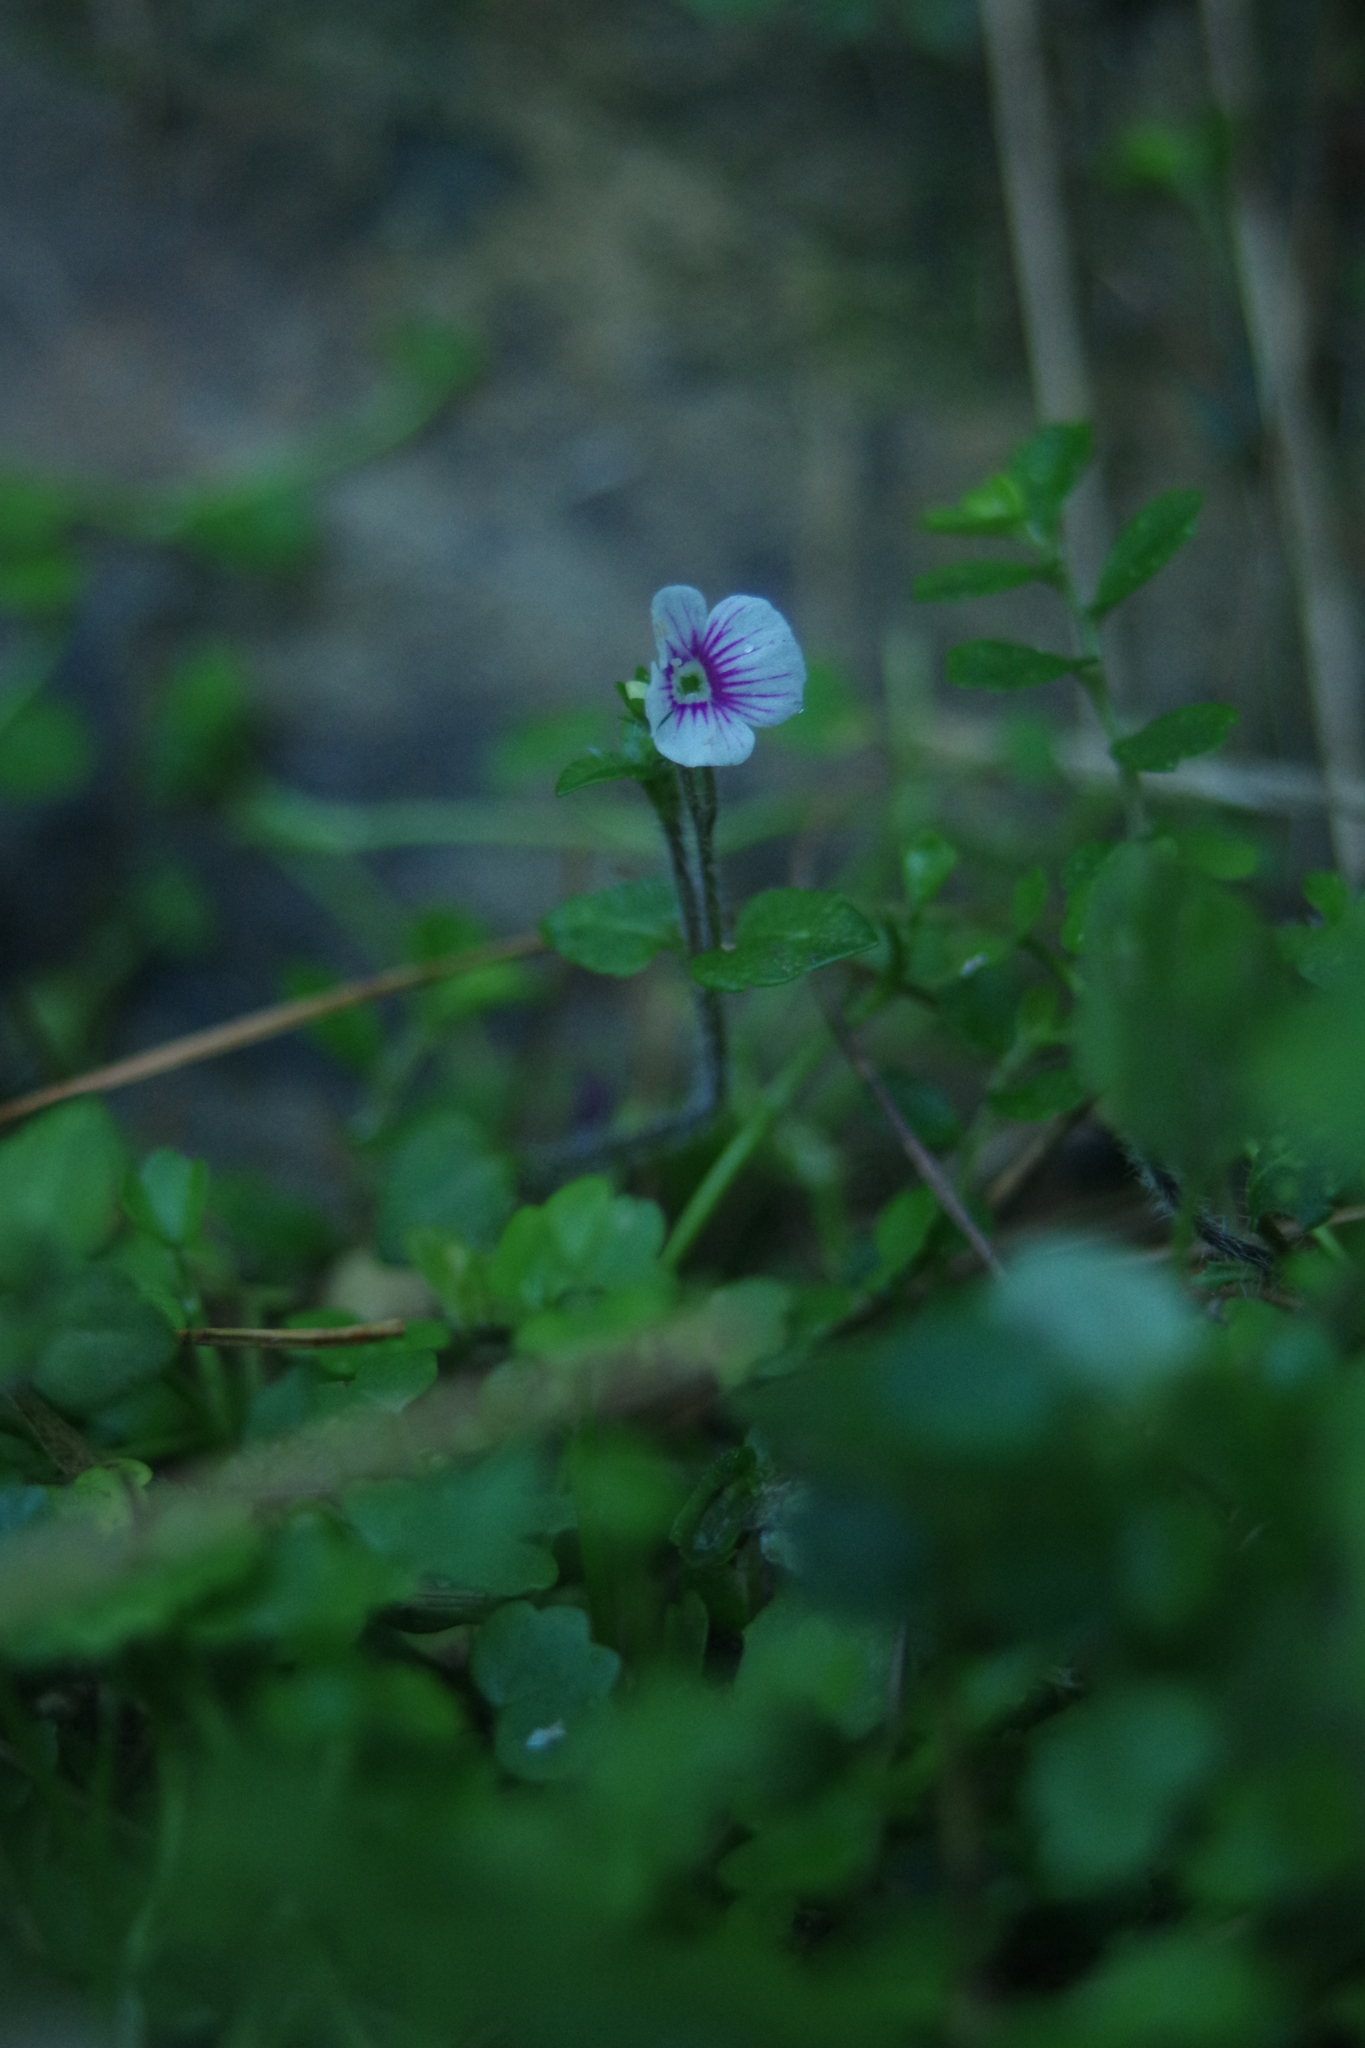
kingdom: Plantae
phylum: Tracheophyta
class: Magnoliopsida
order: Lamiales
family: Plantaginaceae
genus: Veronica
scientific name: Veronica oligosperma
